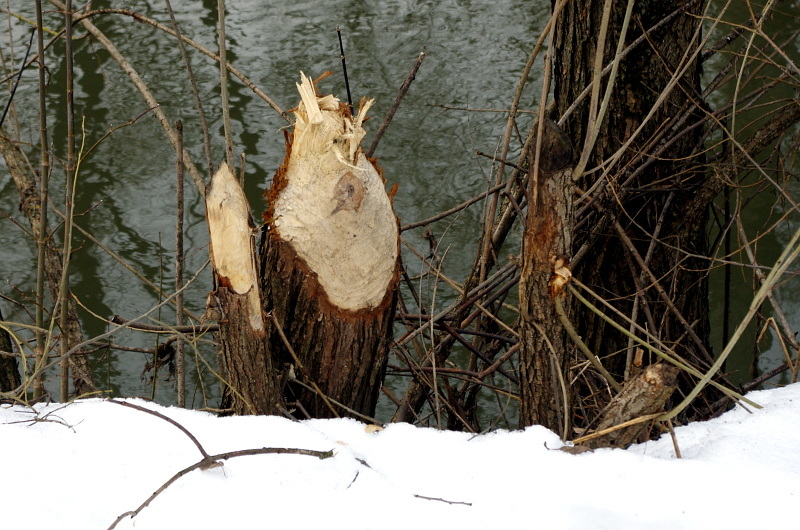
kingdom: Animalia
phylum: Chordata
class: Mammalia
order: Rodentia
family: Castoridae
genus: Castor
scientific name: Castor fiber
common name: Eurasian beaver
